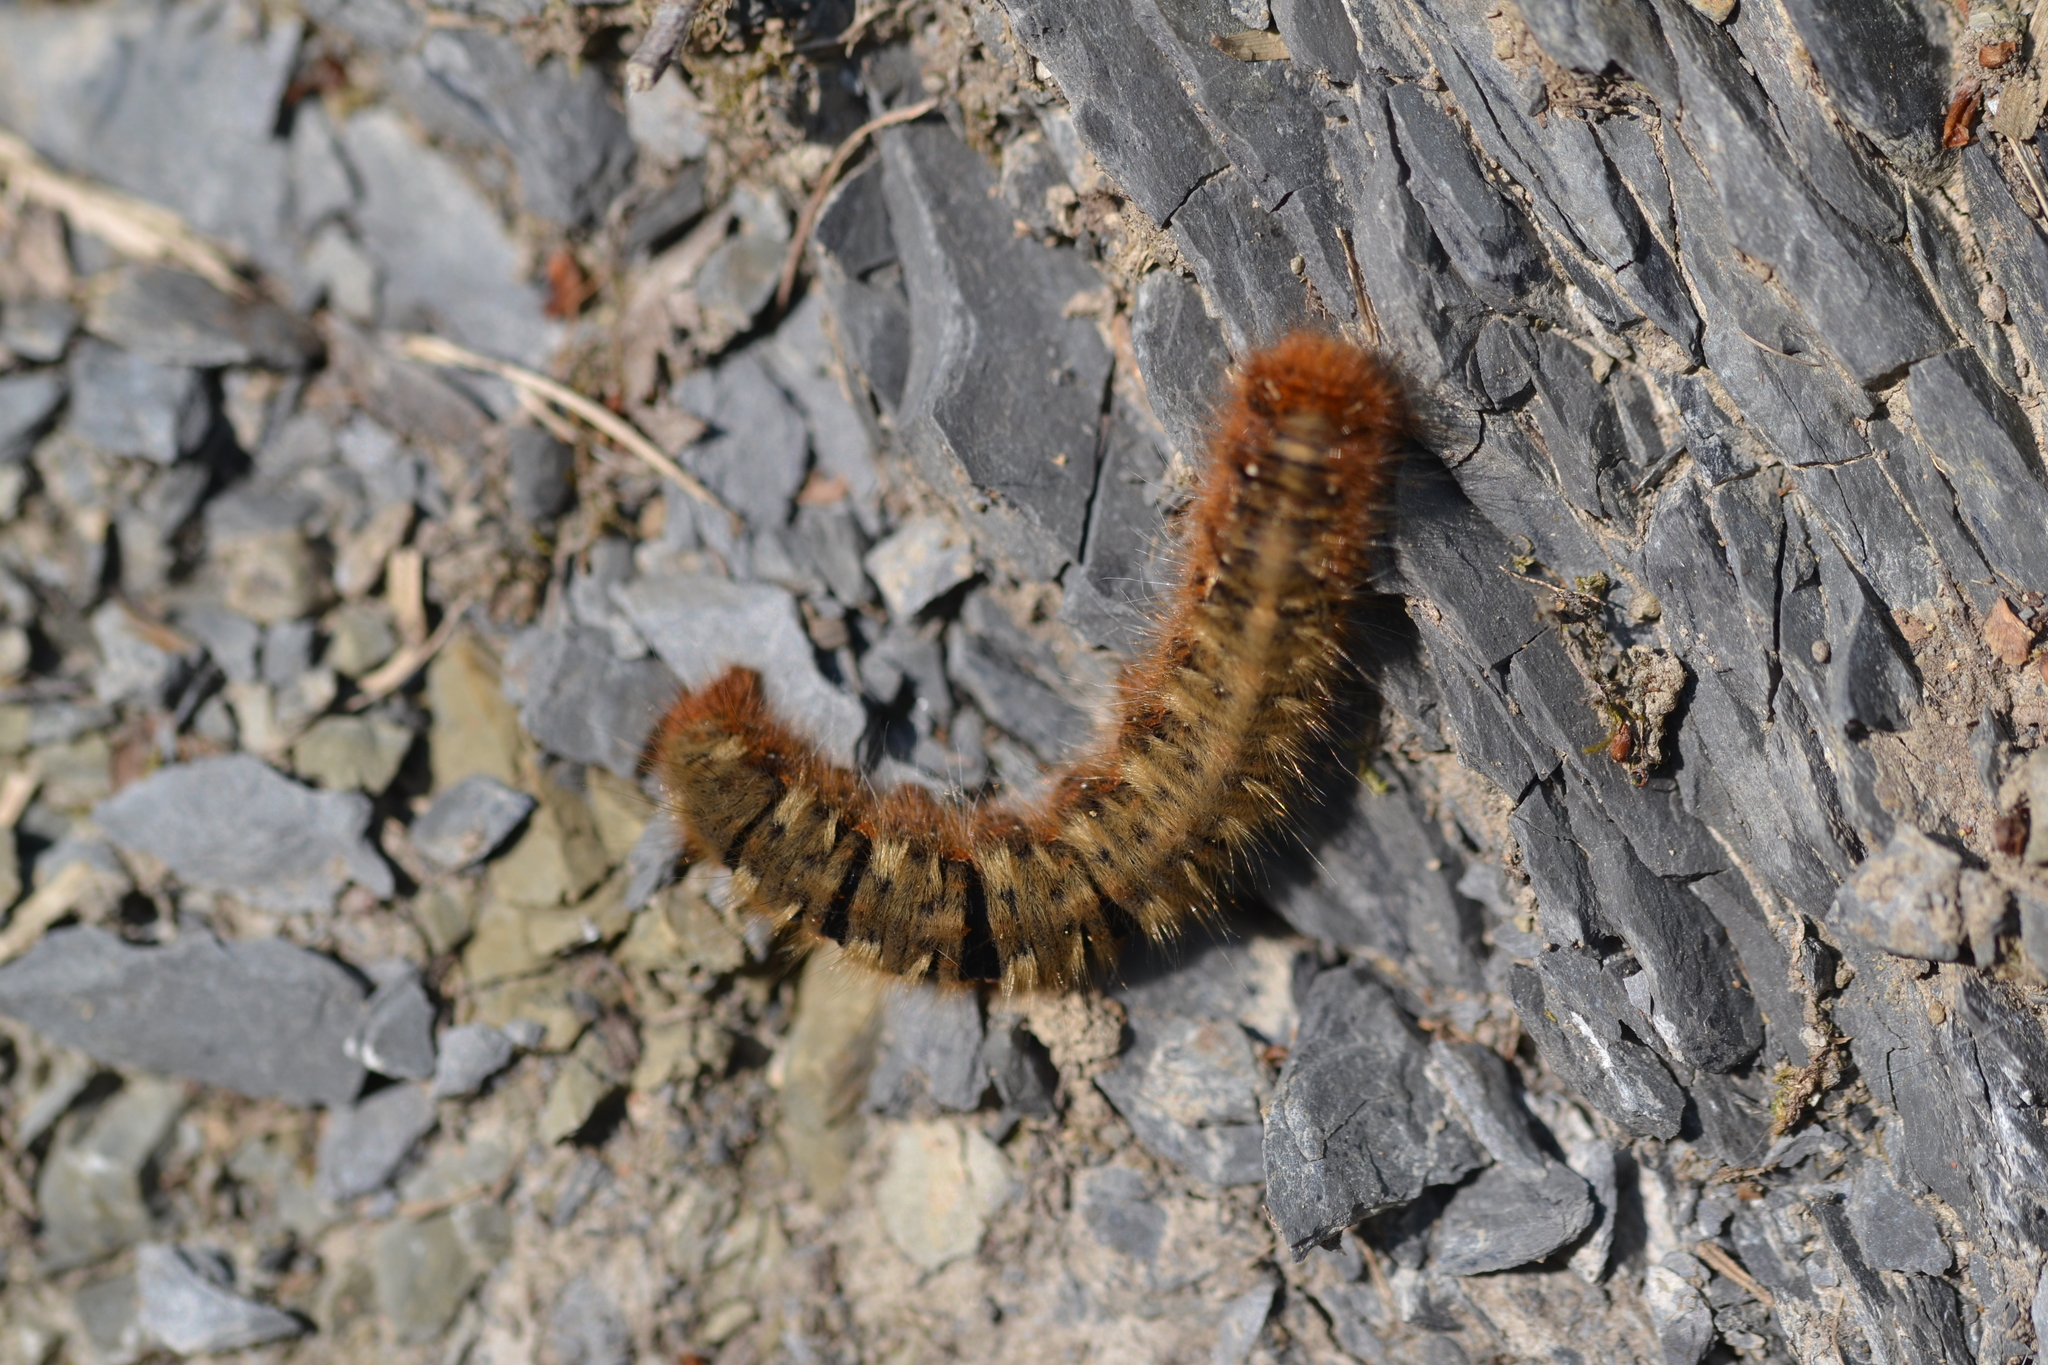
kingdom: Animalia
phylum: Arthropoda
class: Insecta
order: Lepidoptera
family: Lasiocampidae
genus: Lasiocampa
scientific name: Lasiocampa quercus
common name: Oak eggar
